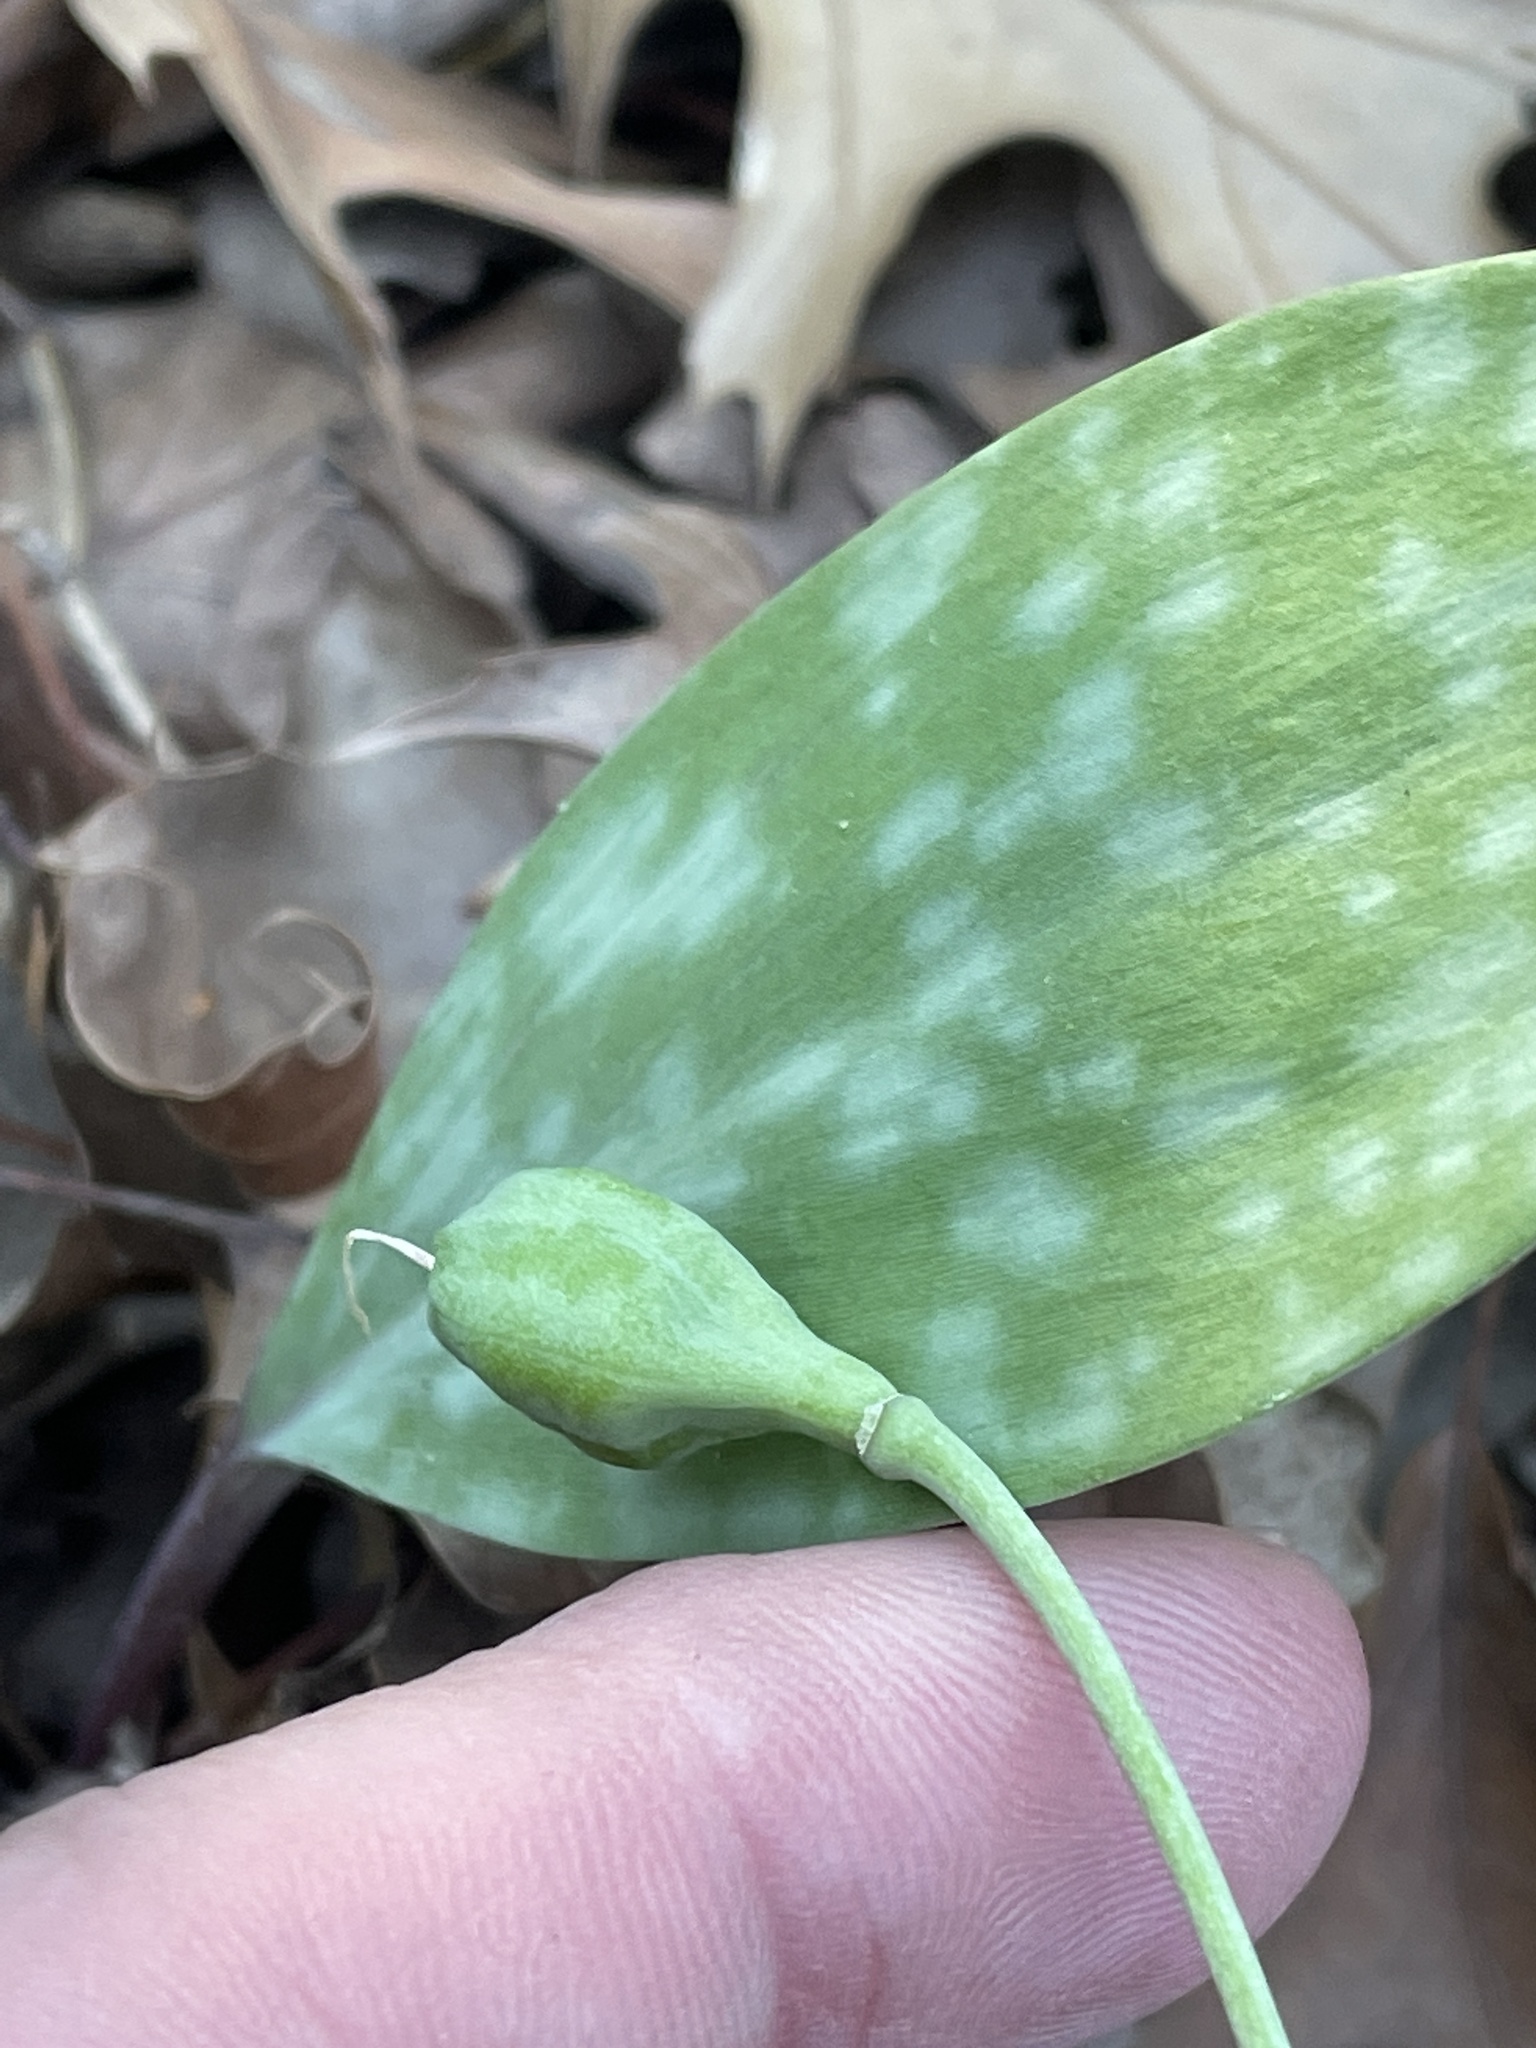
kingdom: Plantae
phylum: Tracheophyta
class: Liliopsida
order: Liliales
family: Liliaceae
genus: Erythronium
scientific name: Erythronium albidum
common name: White trout-lily
